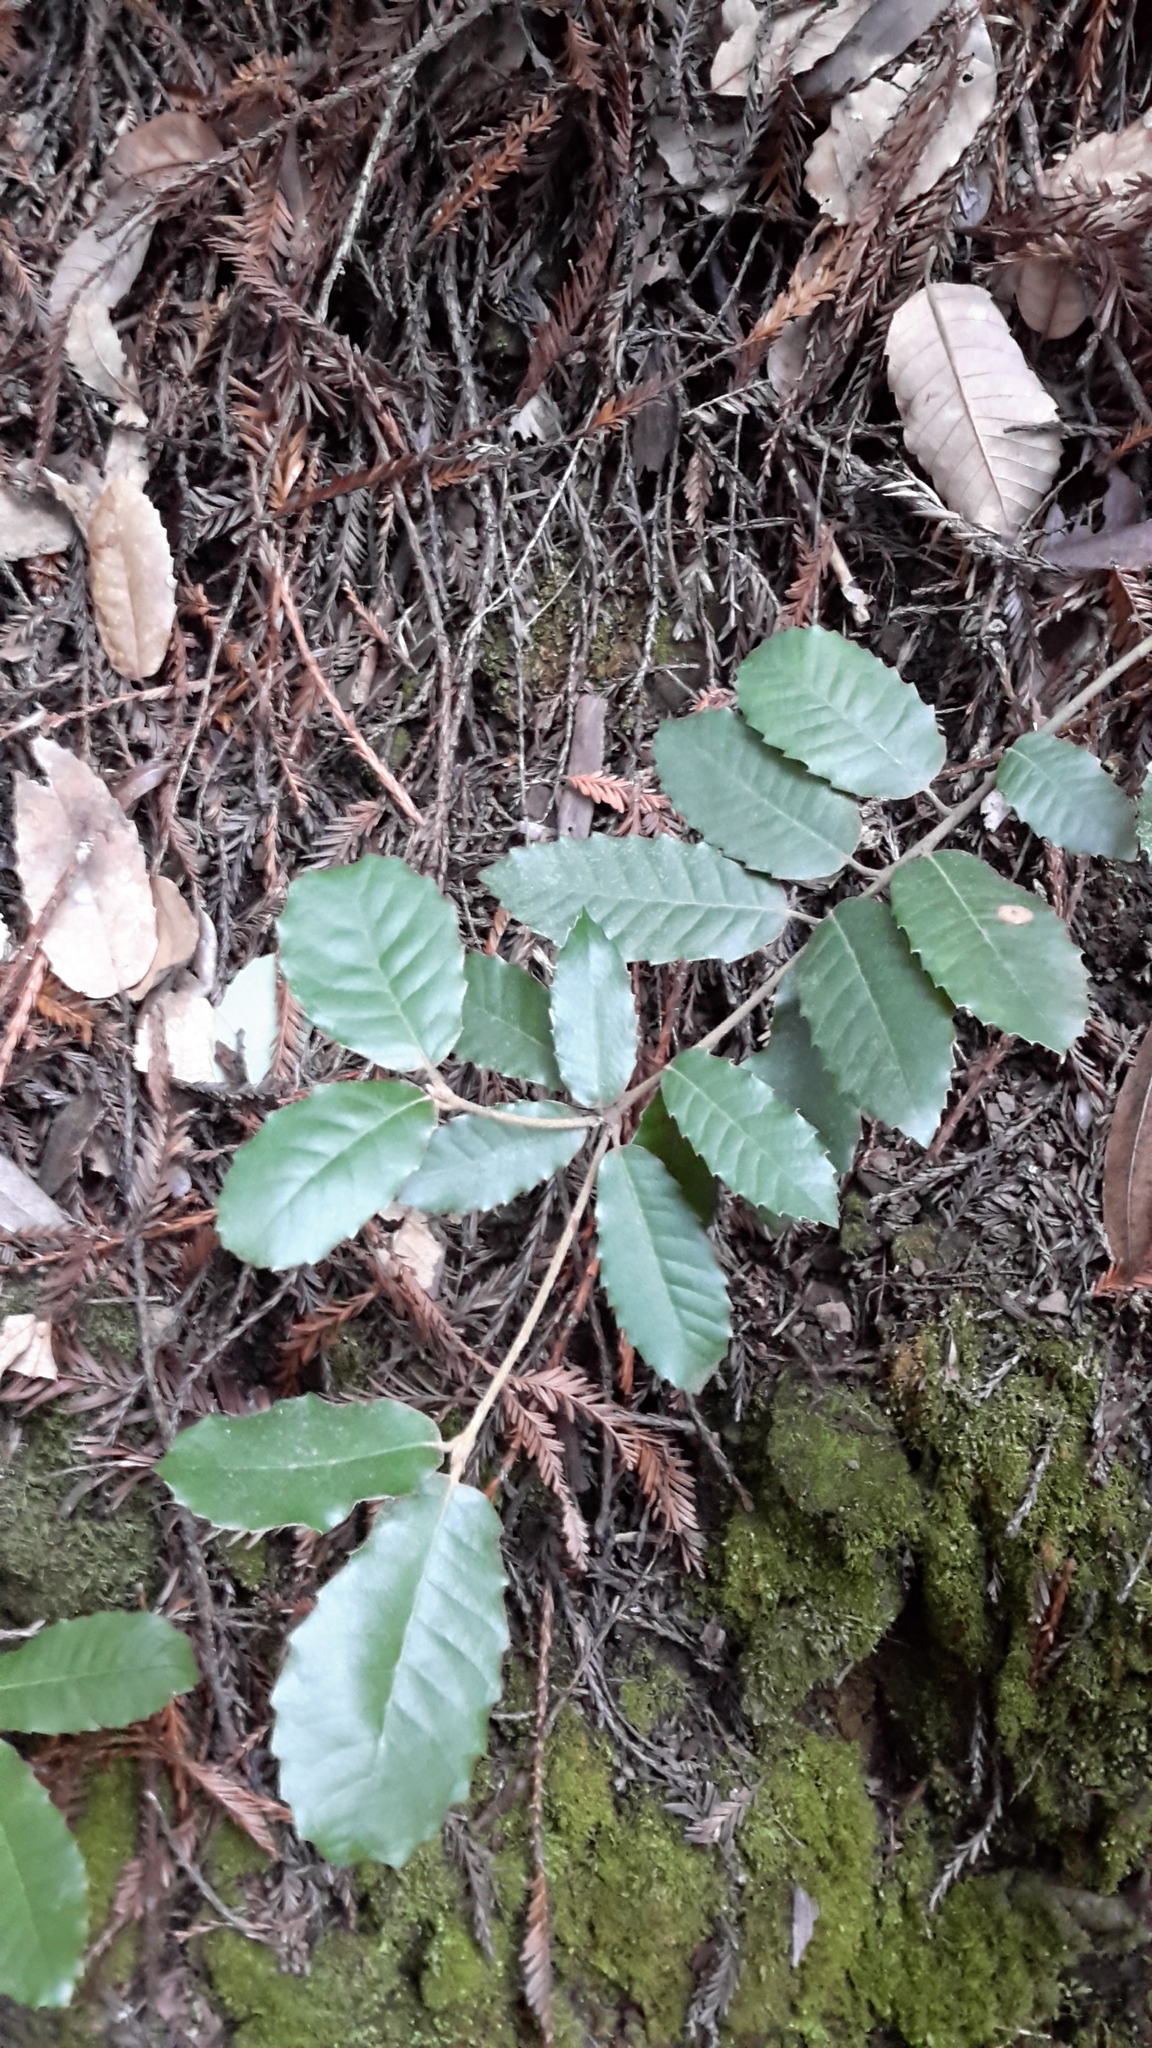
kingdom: Plantae
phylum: Tracheophyta
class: Magnoliopsida
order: Fagales
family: Fagaceae
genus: Notholithocarpus
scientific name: Notholithocarpus densiflorus
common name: Tan bark oak
